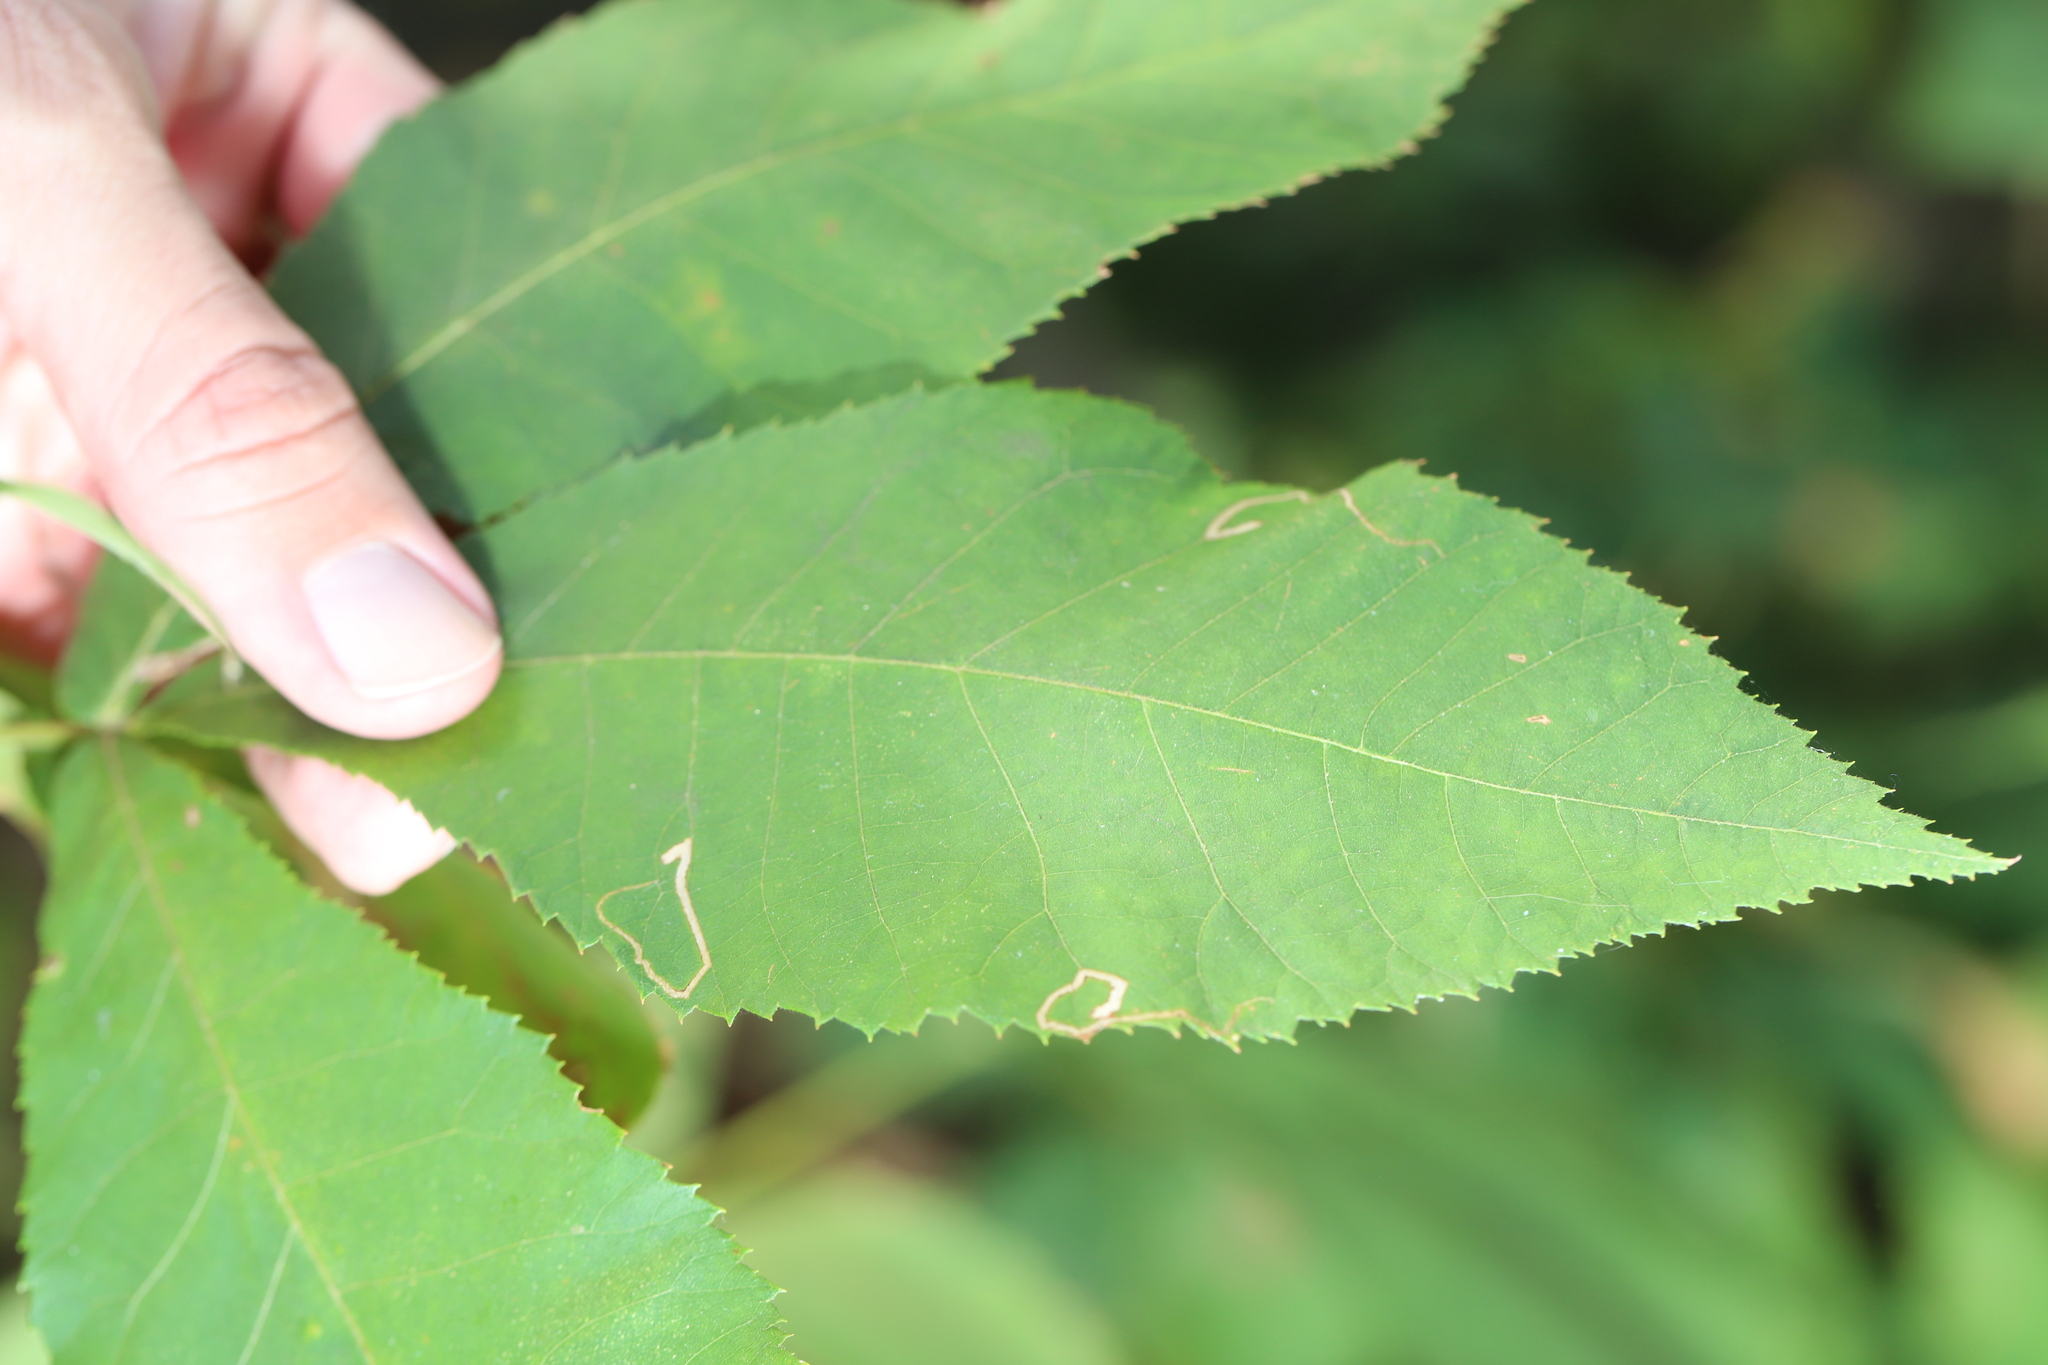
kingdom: Animalia
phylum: Arthropoda
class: Insecta
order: Lepidoptera
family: Nepticulidae
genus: Stigmella
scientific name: Stigmella caryaefoliella
